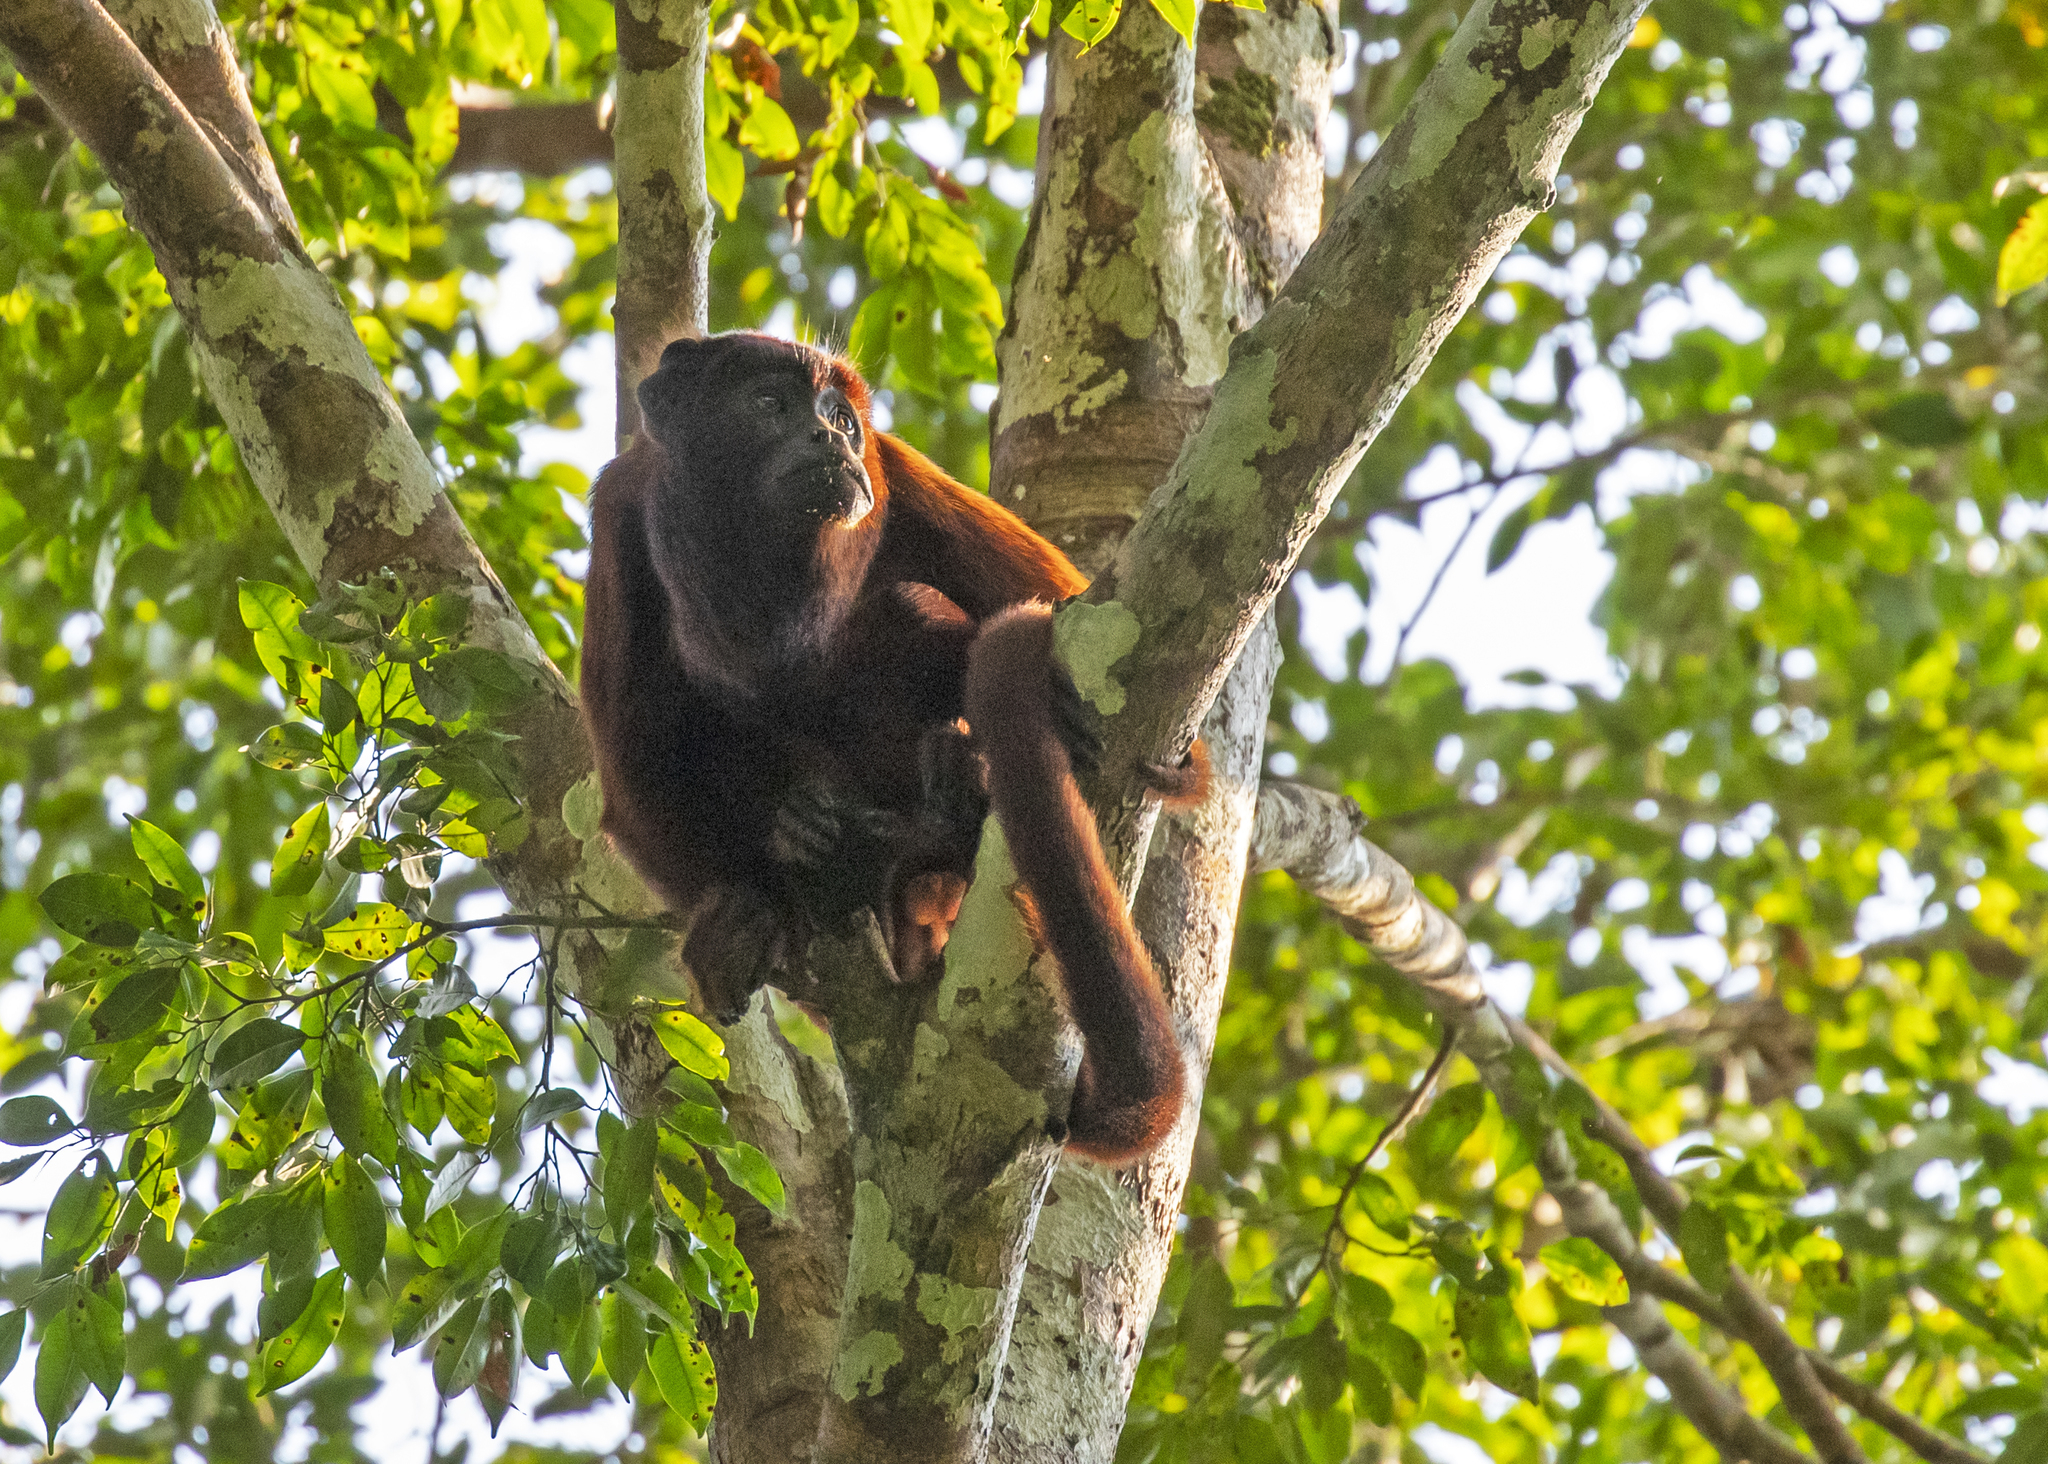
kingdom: Animalia
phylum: Chordata
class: Mammalia
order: Primates
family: Atelidae
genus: Alouatta
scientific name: Alouatta sara
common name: Bolivian red howler
